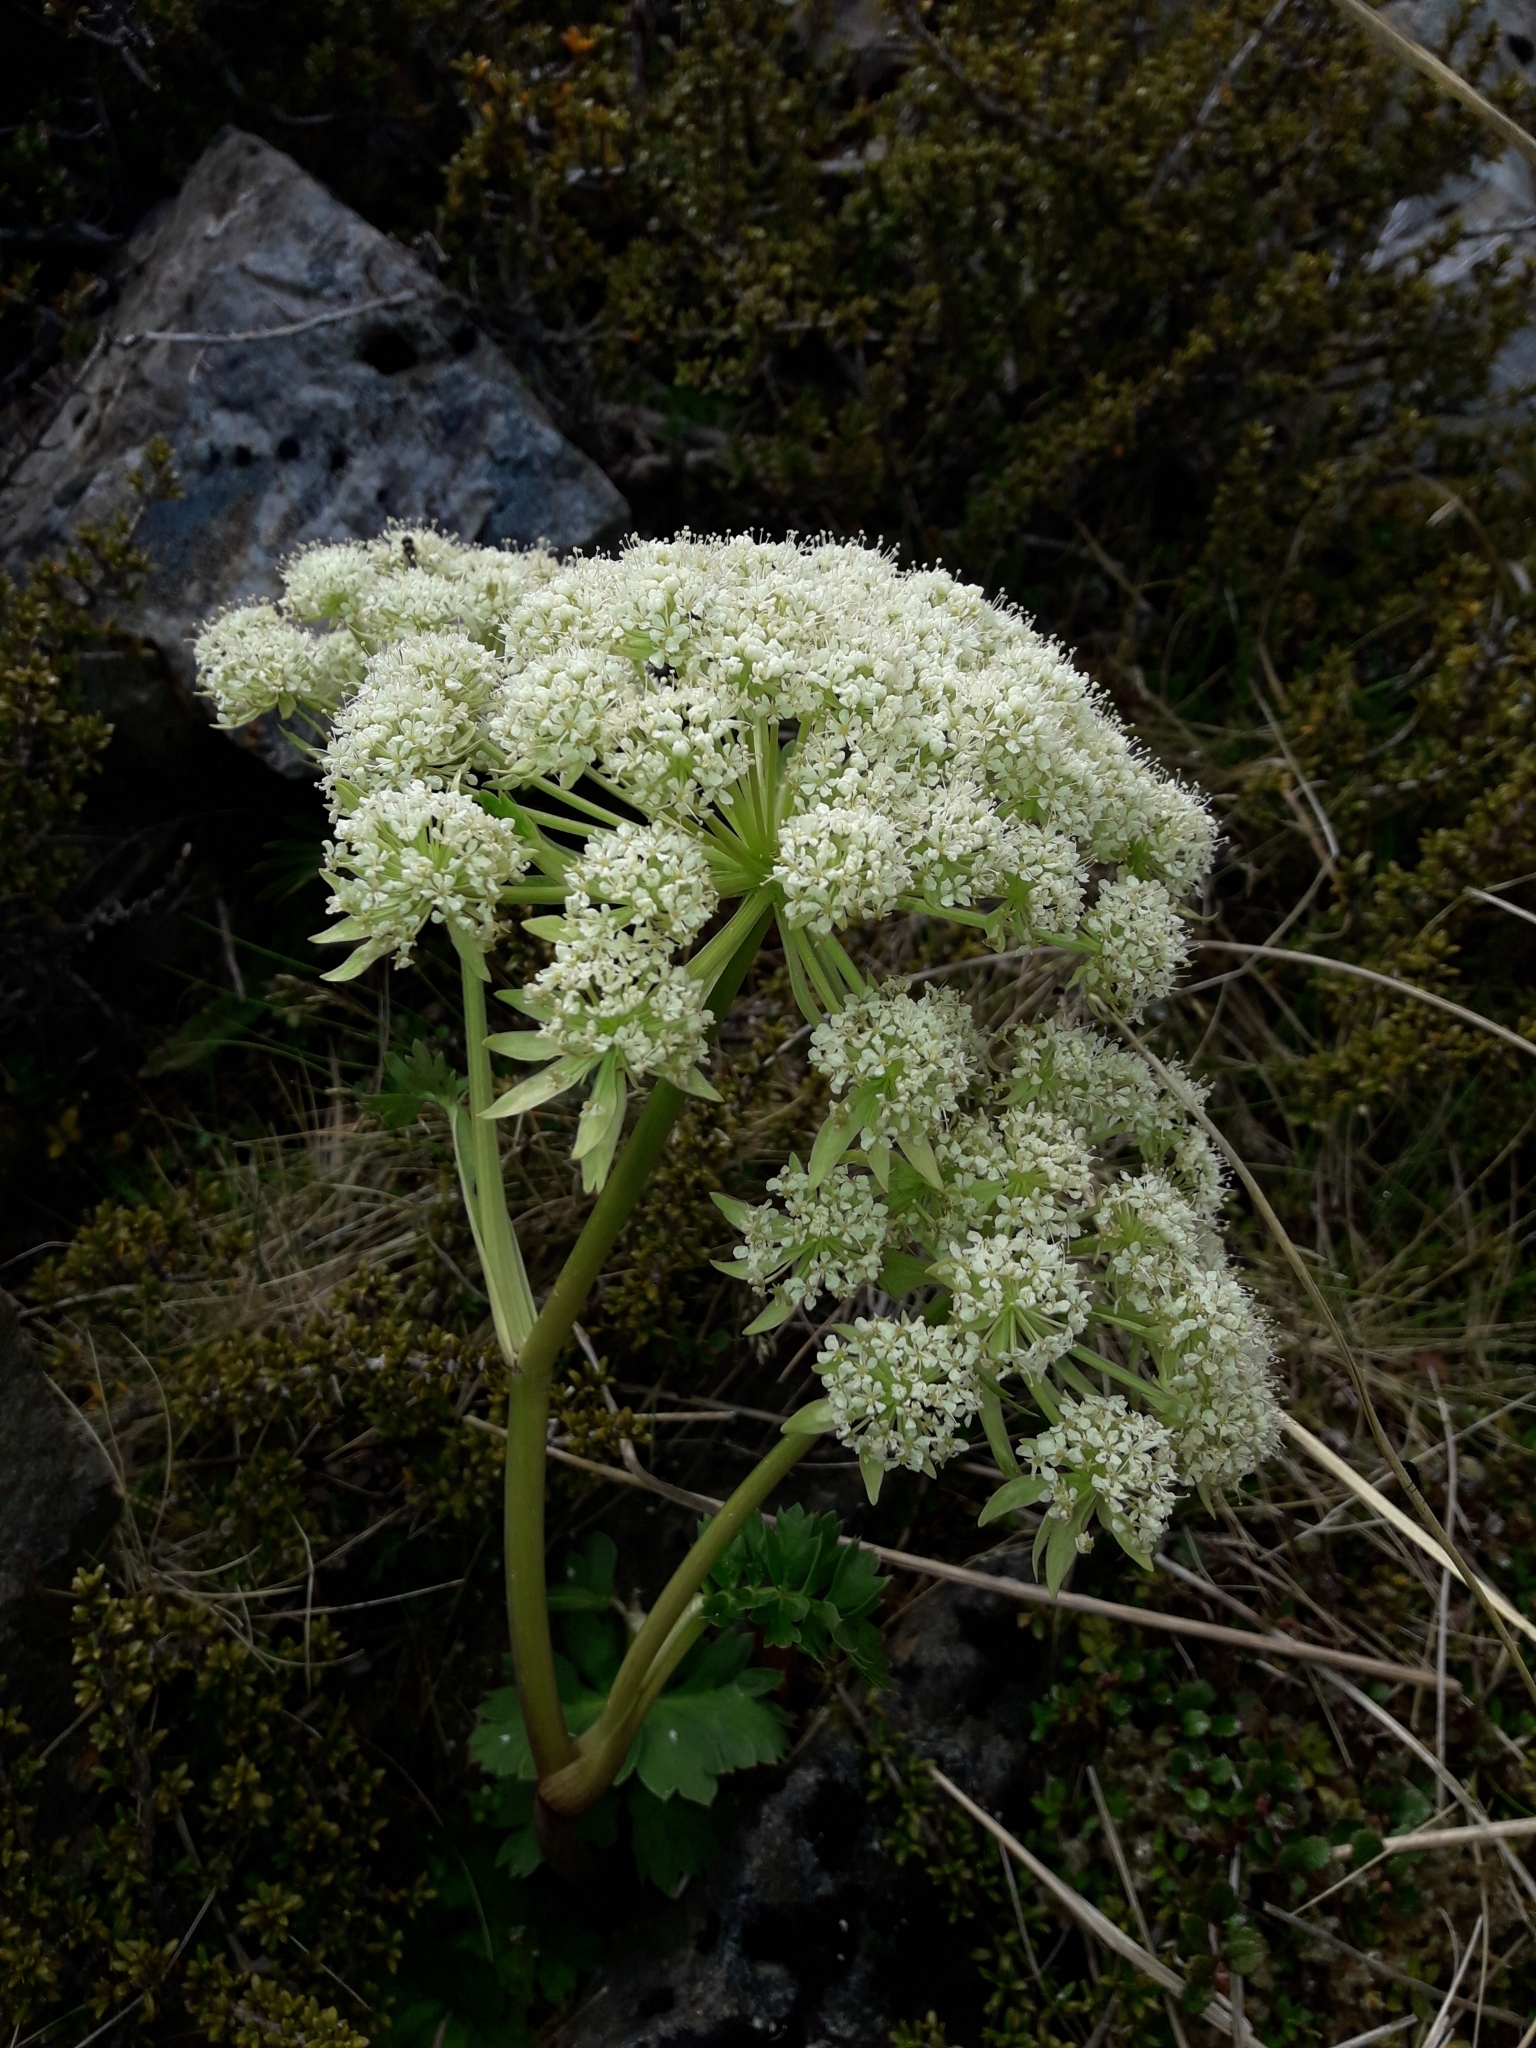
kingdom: Plantae
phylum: Tracheophyta
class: Magnoliopsida
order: Apiales
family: Apiaceae
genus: Anisotome
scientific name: Anisotome pilifera
